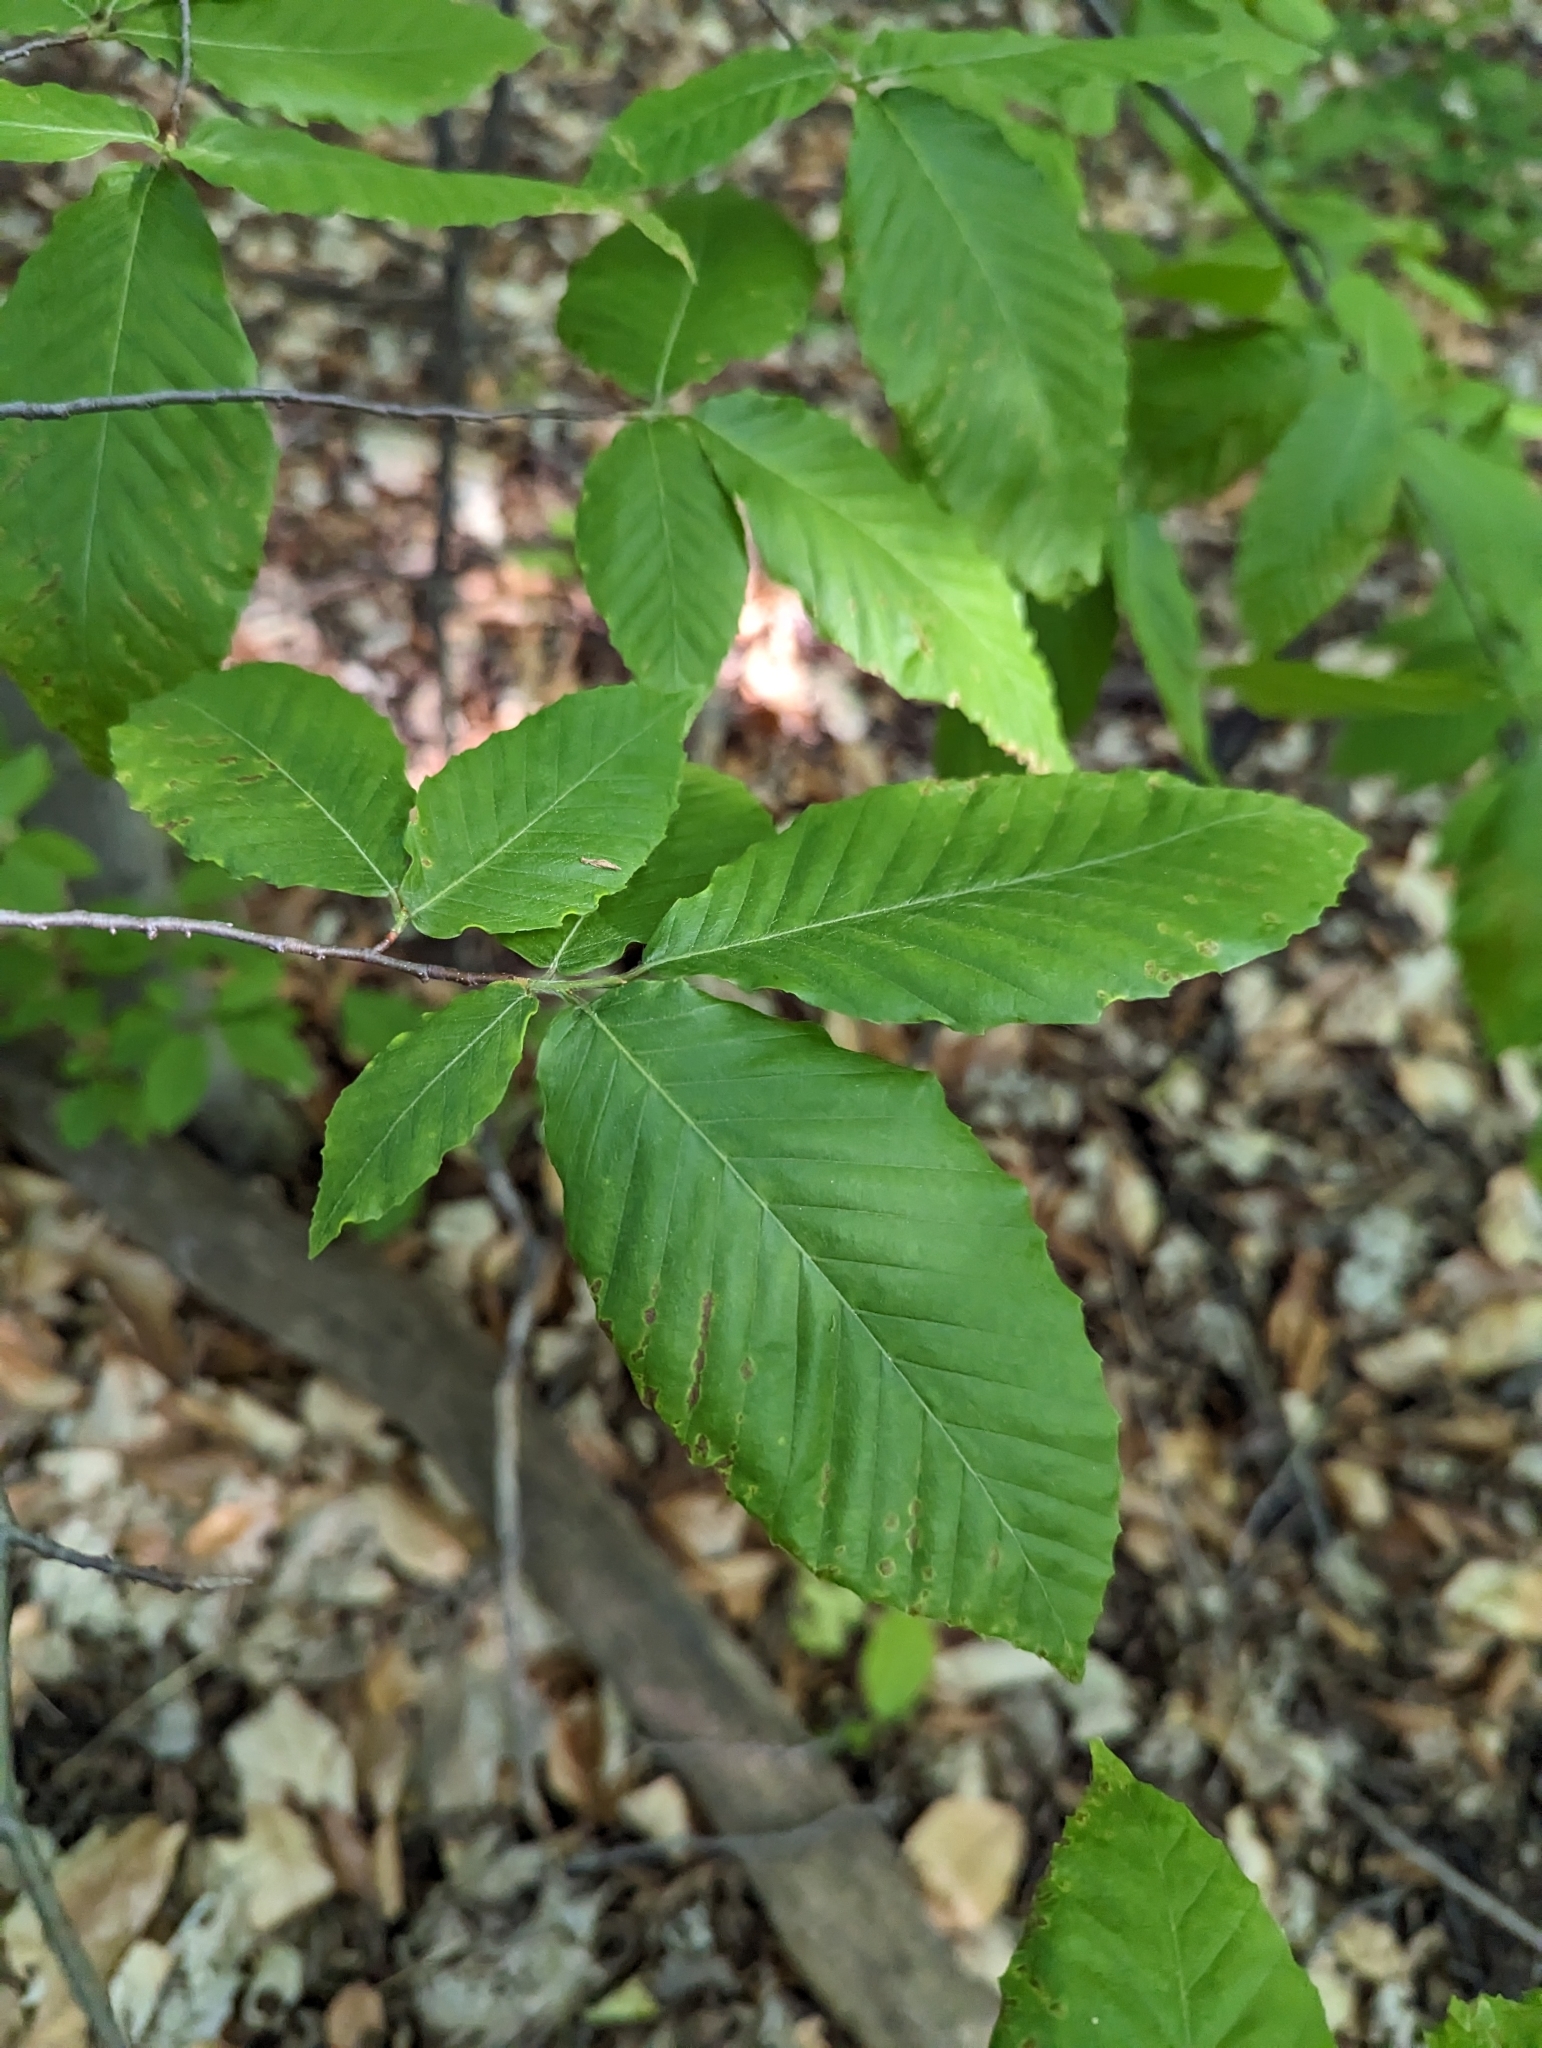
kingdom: Plantae
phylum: Tracheophyta
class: Magnoliopsida
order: Fagales
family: Fagaceae
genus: Fagus
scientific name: Fagus grandifolia
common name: American beech
